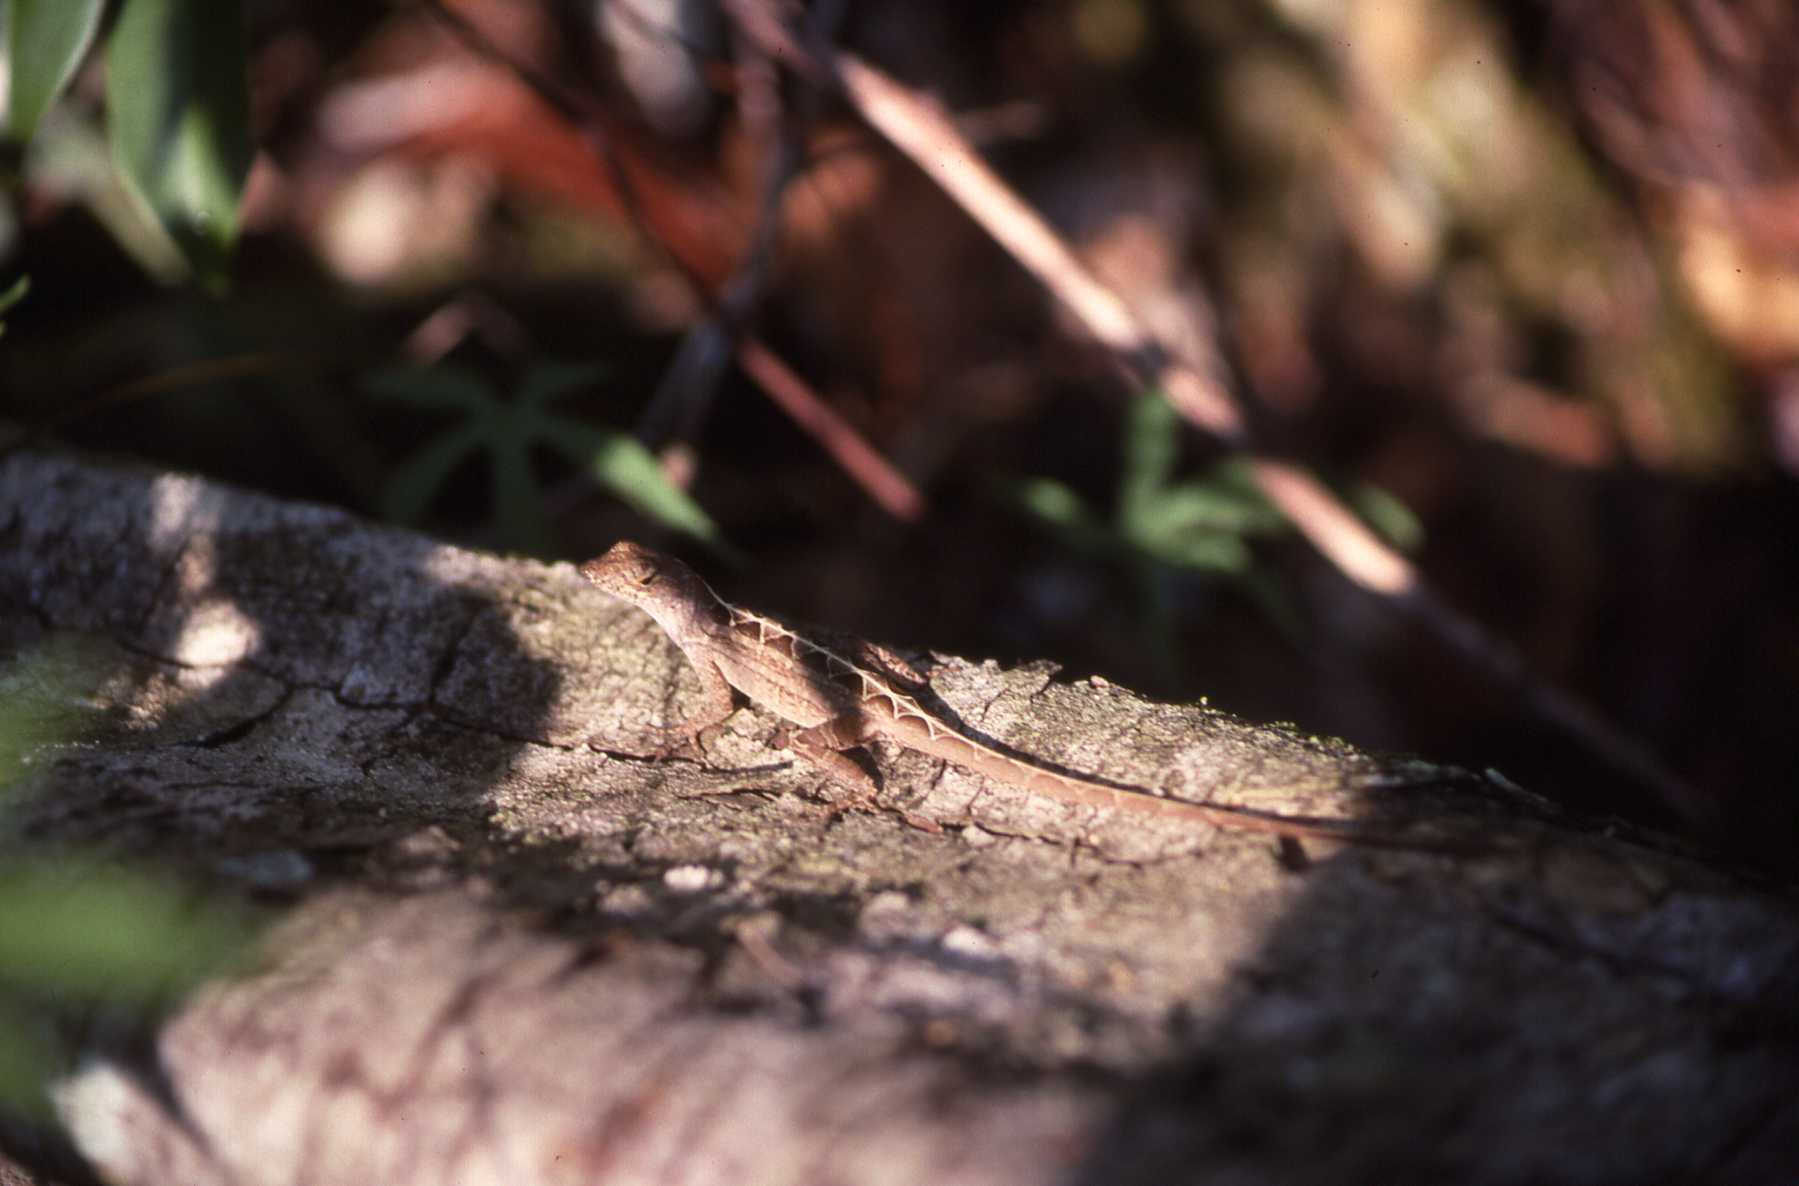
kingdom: Animalia
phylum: Chordata
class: Squamata
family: Dactyloidae
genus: Anolis
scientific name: Anolis sagrei
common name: Brown anole
